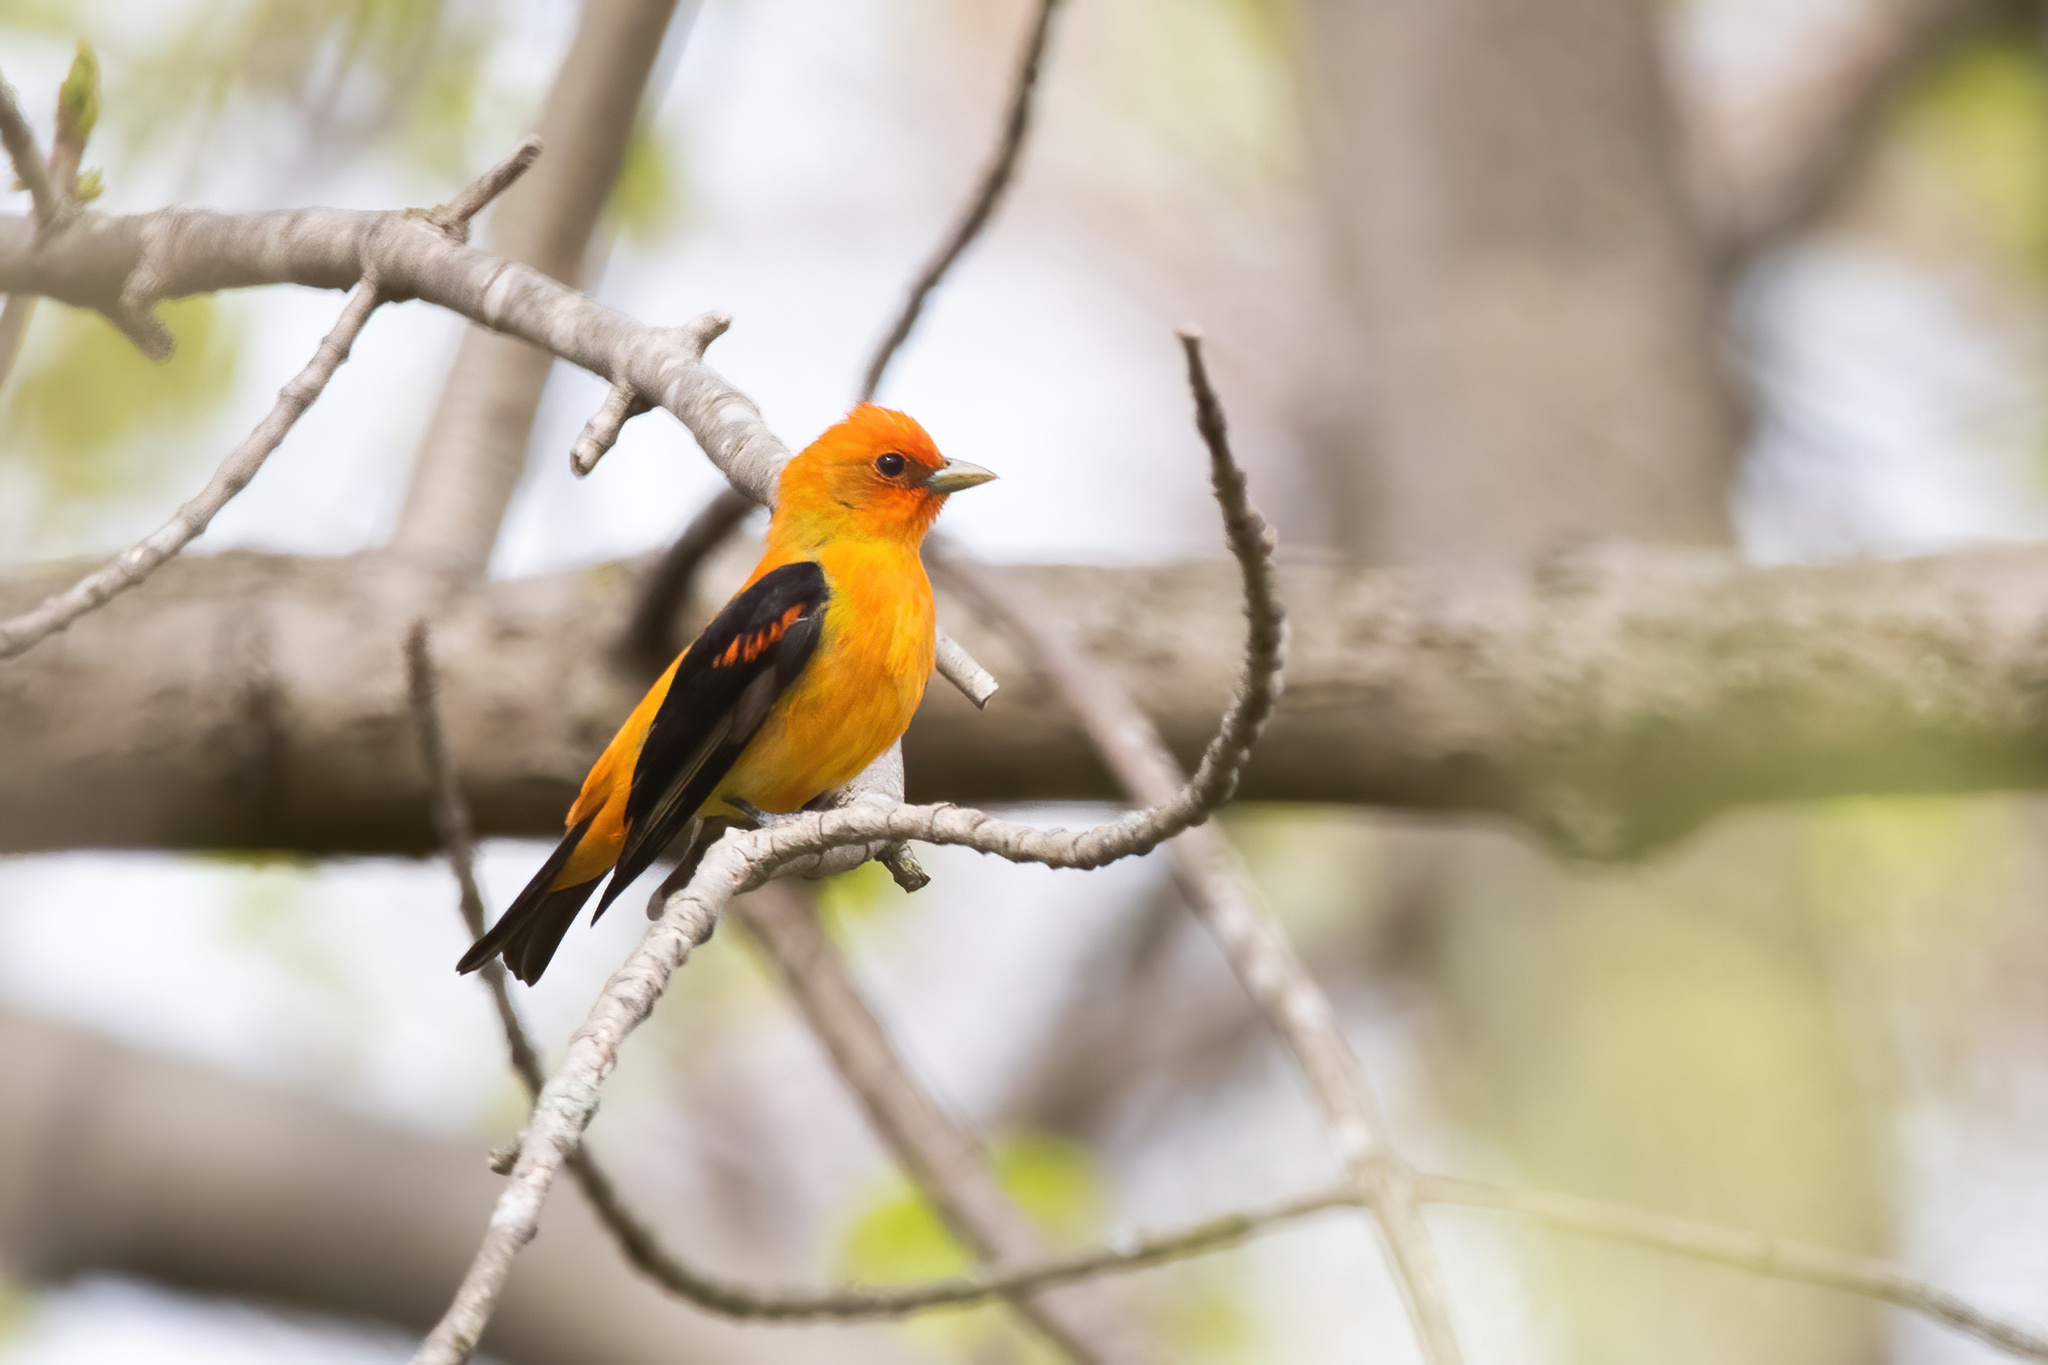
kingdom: Animalia
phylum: Chordata
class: Aves
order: Passeriformes
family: Cardinalidae
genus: Piranga
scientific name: Piranga olivacea
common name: Scarlet tanager
